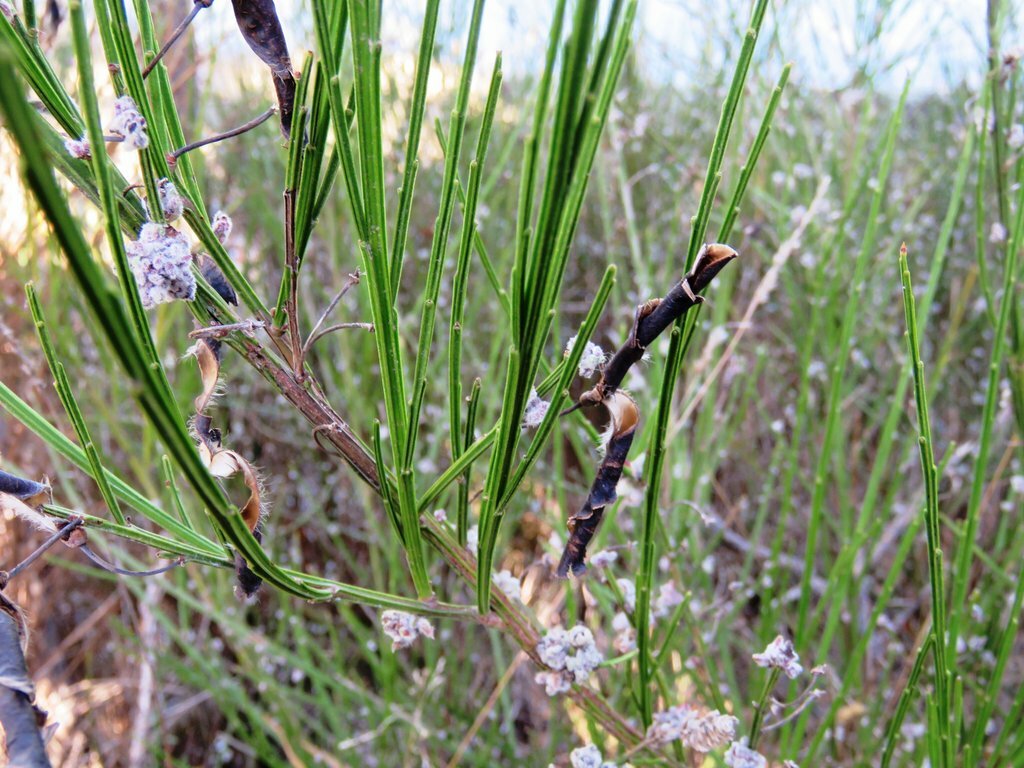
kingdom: Plantae
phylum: Tracheophyta
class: Magnoliopsida
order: Fabales
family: Fabaceae
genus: Cytisus
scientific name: Cytisus scoparius
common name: Scotch broom
